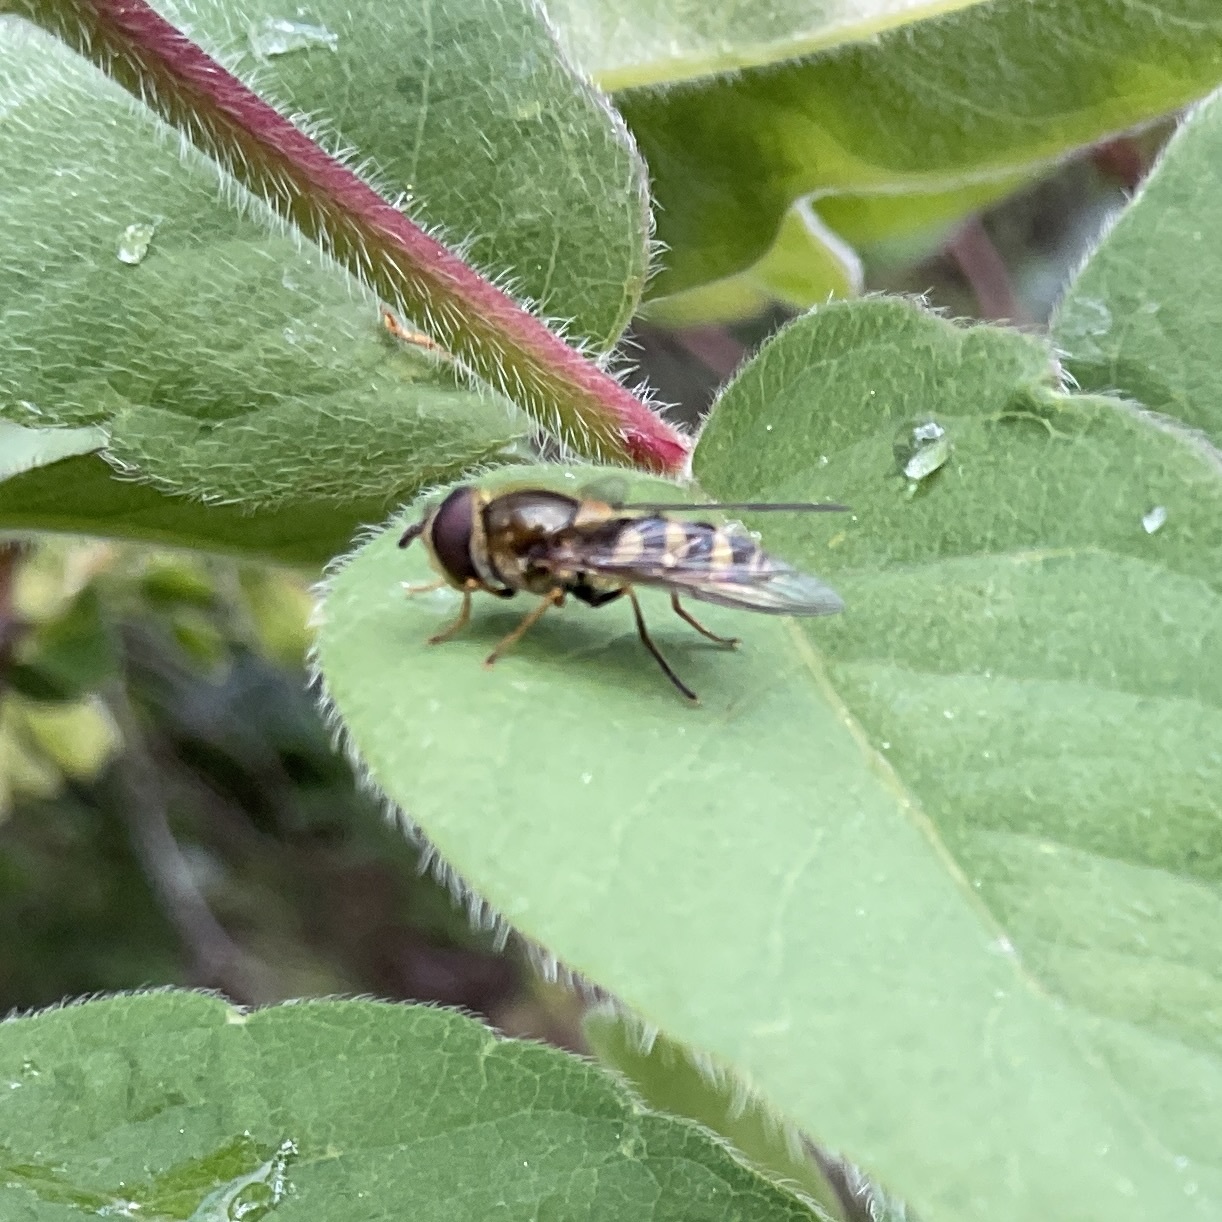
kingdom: Animalia
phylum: Arthropoda
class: Insecta
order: Diptera
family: Syrphidae
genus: Syrphus
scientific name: Syrphus opinator
